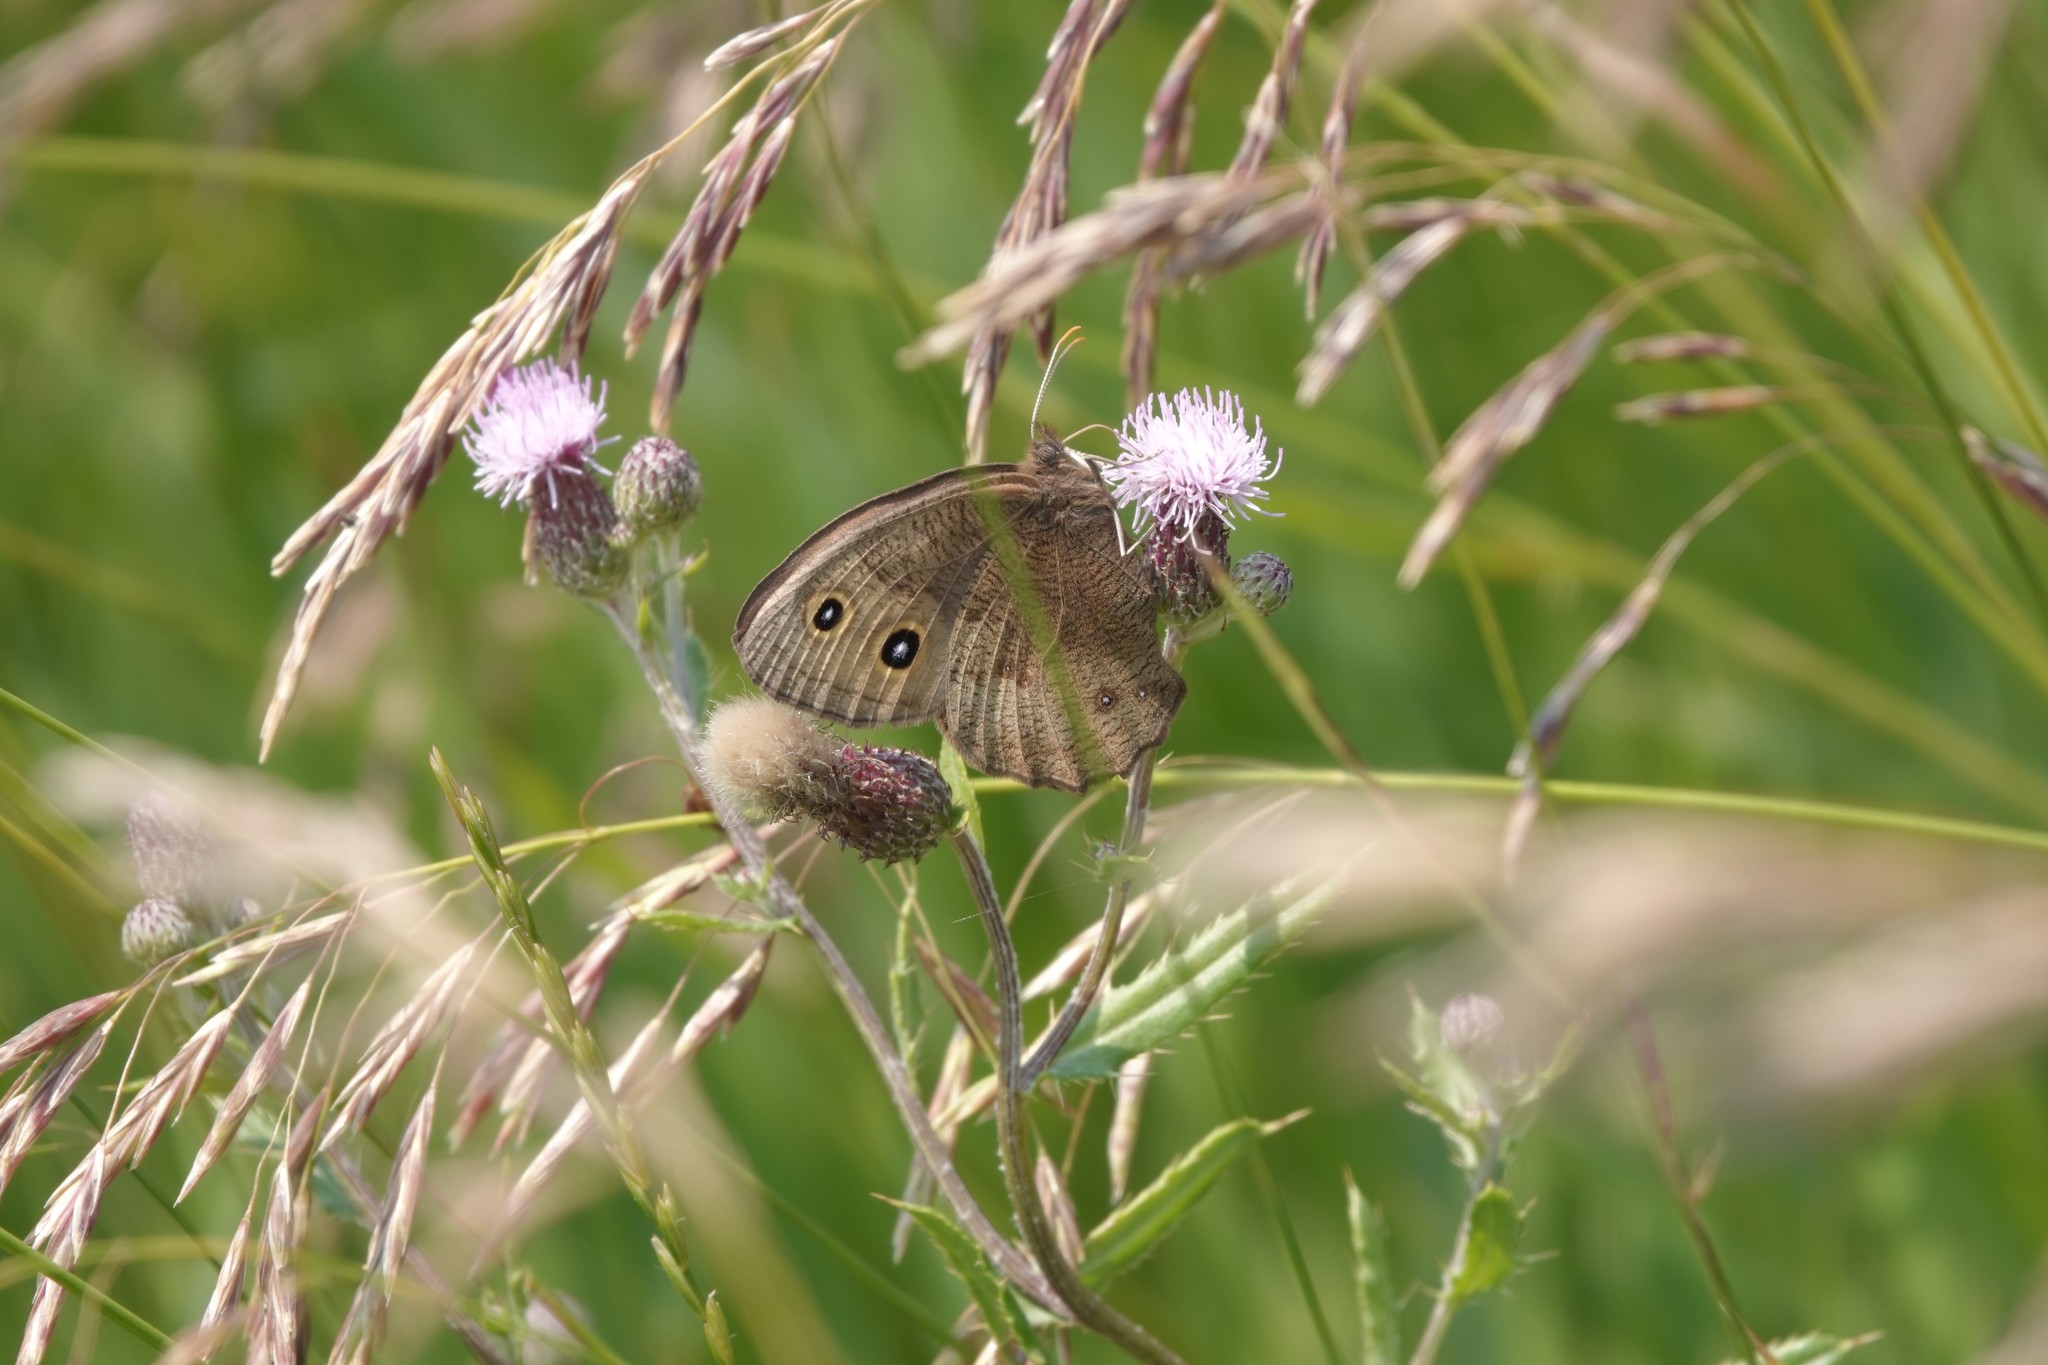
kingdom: Animalia
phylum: Arthropoda
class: Insecta
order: Lepidoptera
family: Nymphalidae
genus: Cercyonis
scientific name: Cercyonis pegala
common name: Common wood-nymph
